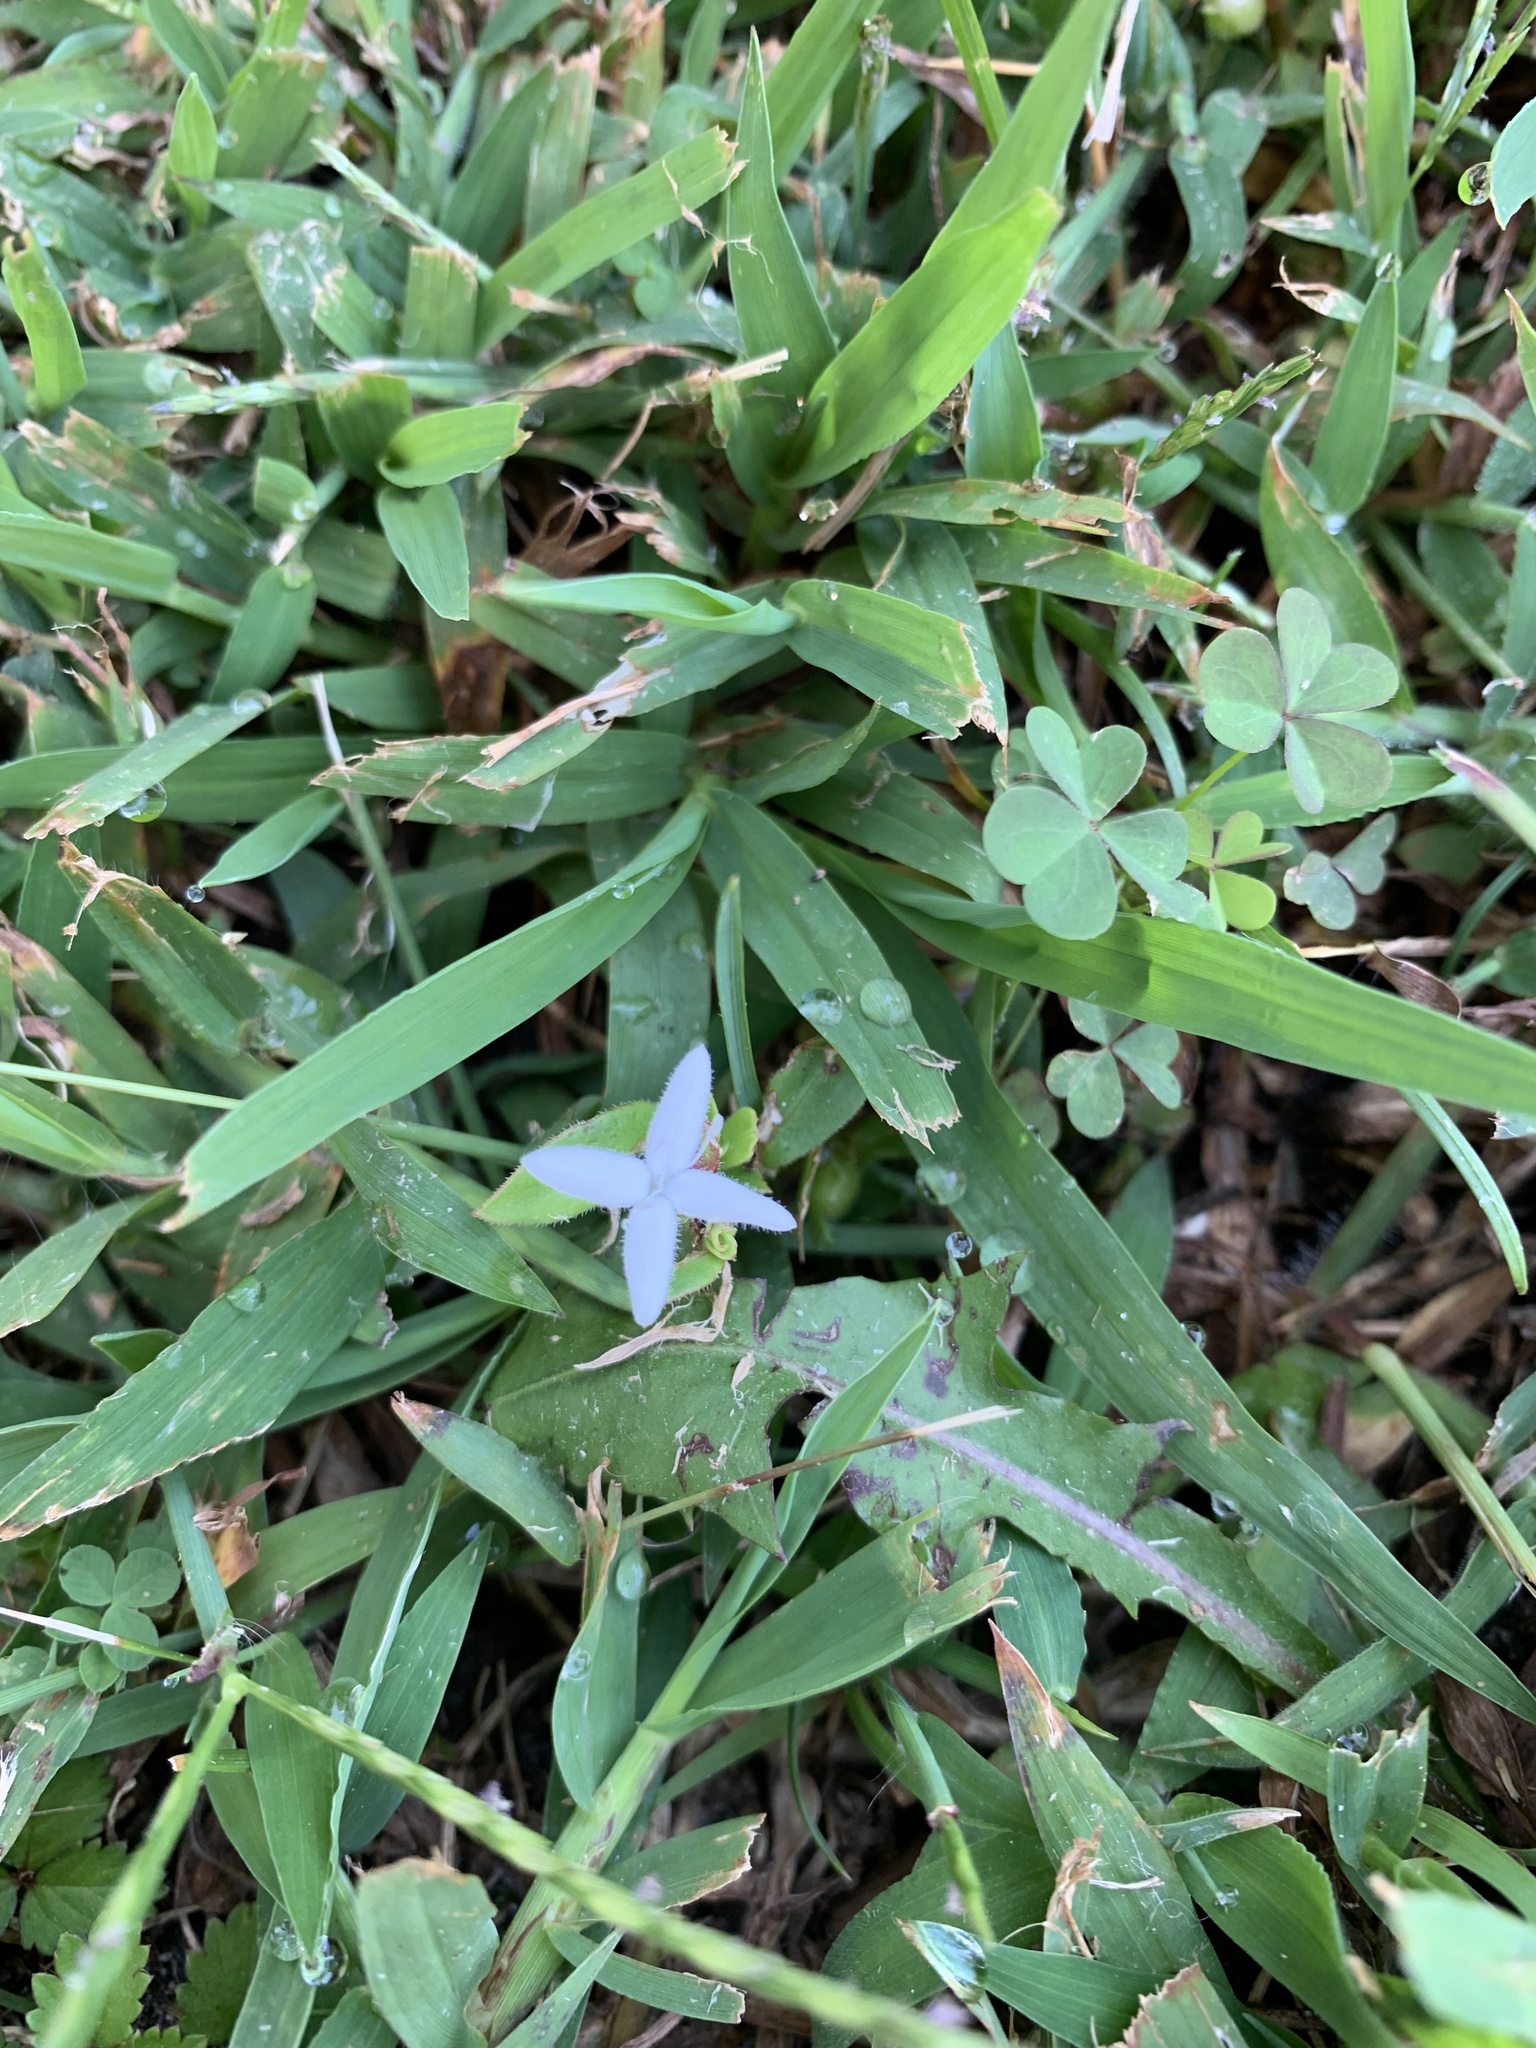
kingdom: Plantae
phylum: Tracheophyta
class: Magnoliopsida
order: Gentianales
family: Rubiaceae
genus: Diodia
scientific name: Diodia virginiana
